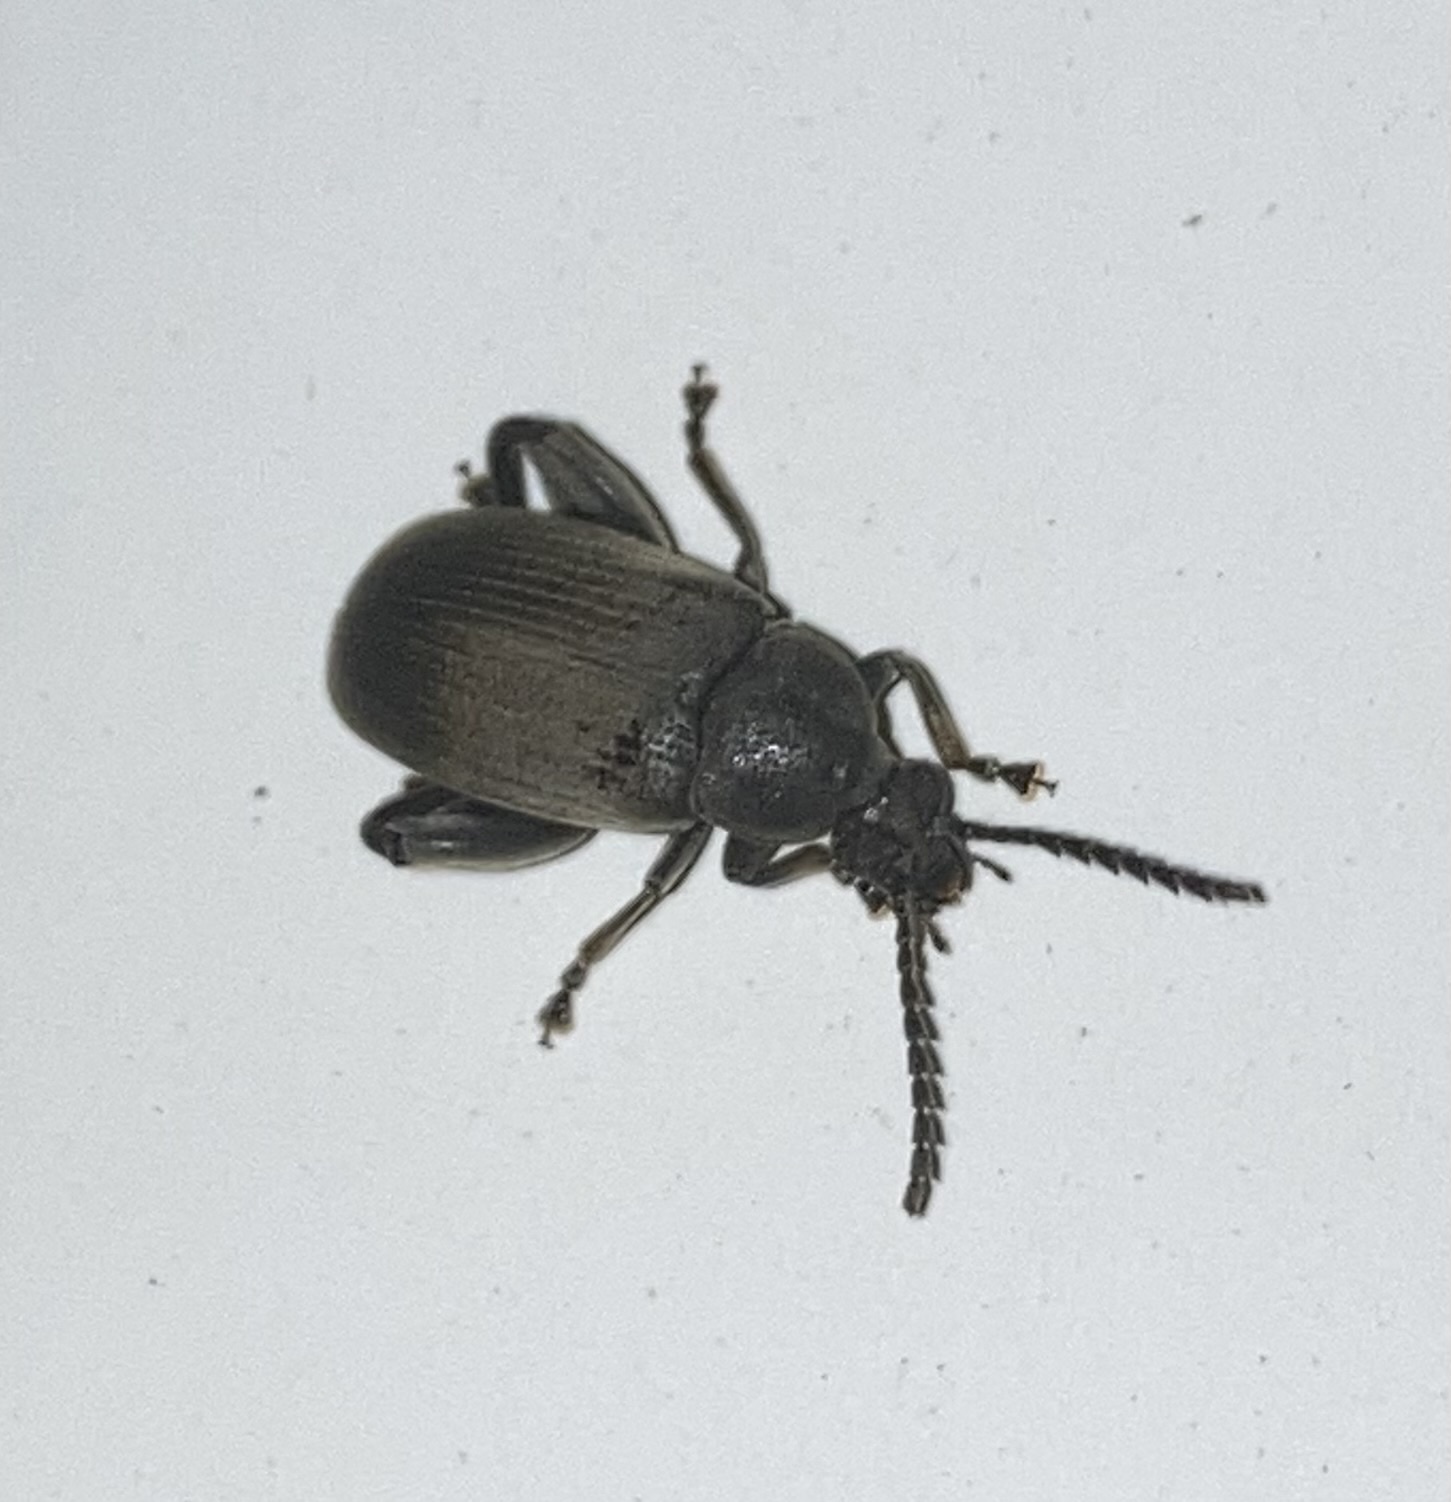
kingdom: Animalia
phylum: Arthropoda
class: Insecta
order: Coleoptera
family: Chrysomelidae
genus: Pachymerus
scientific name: Pachymerus
